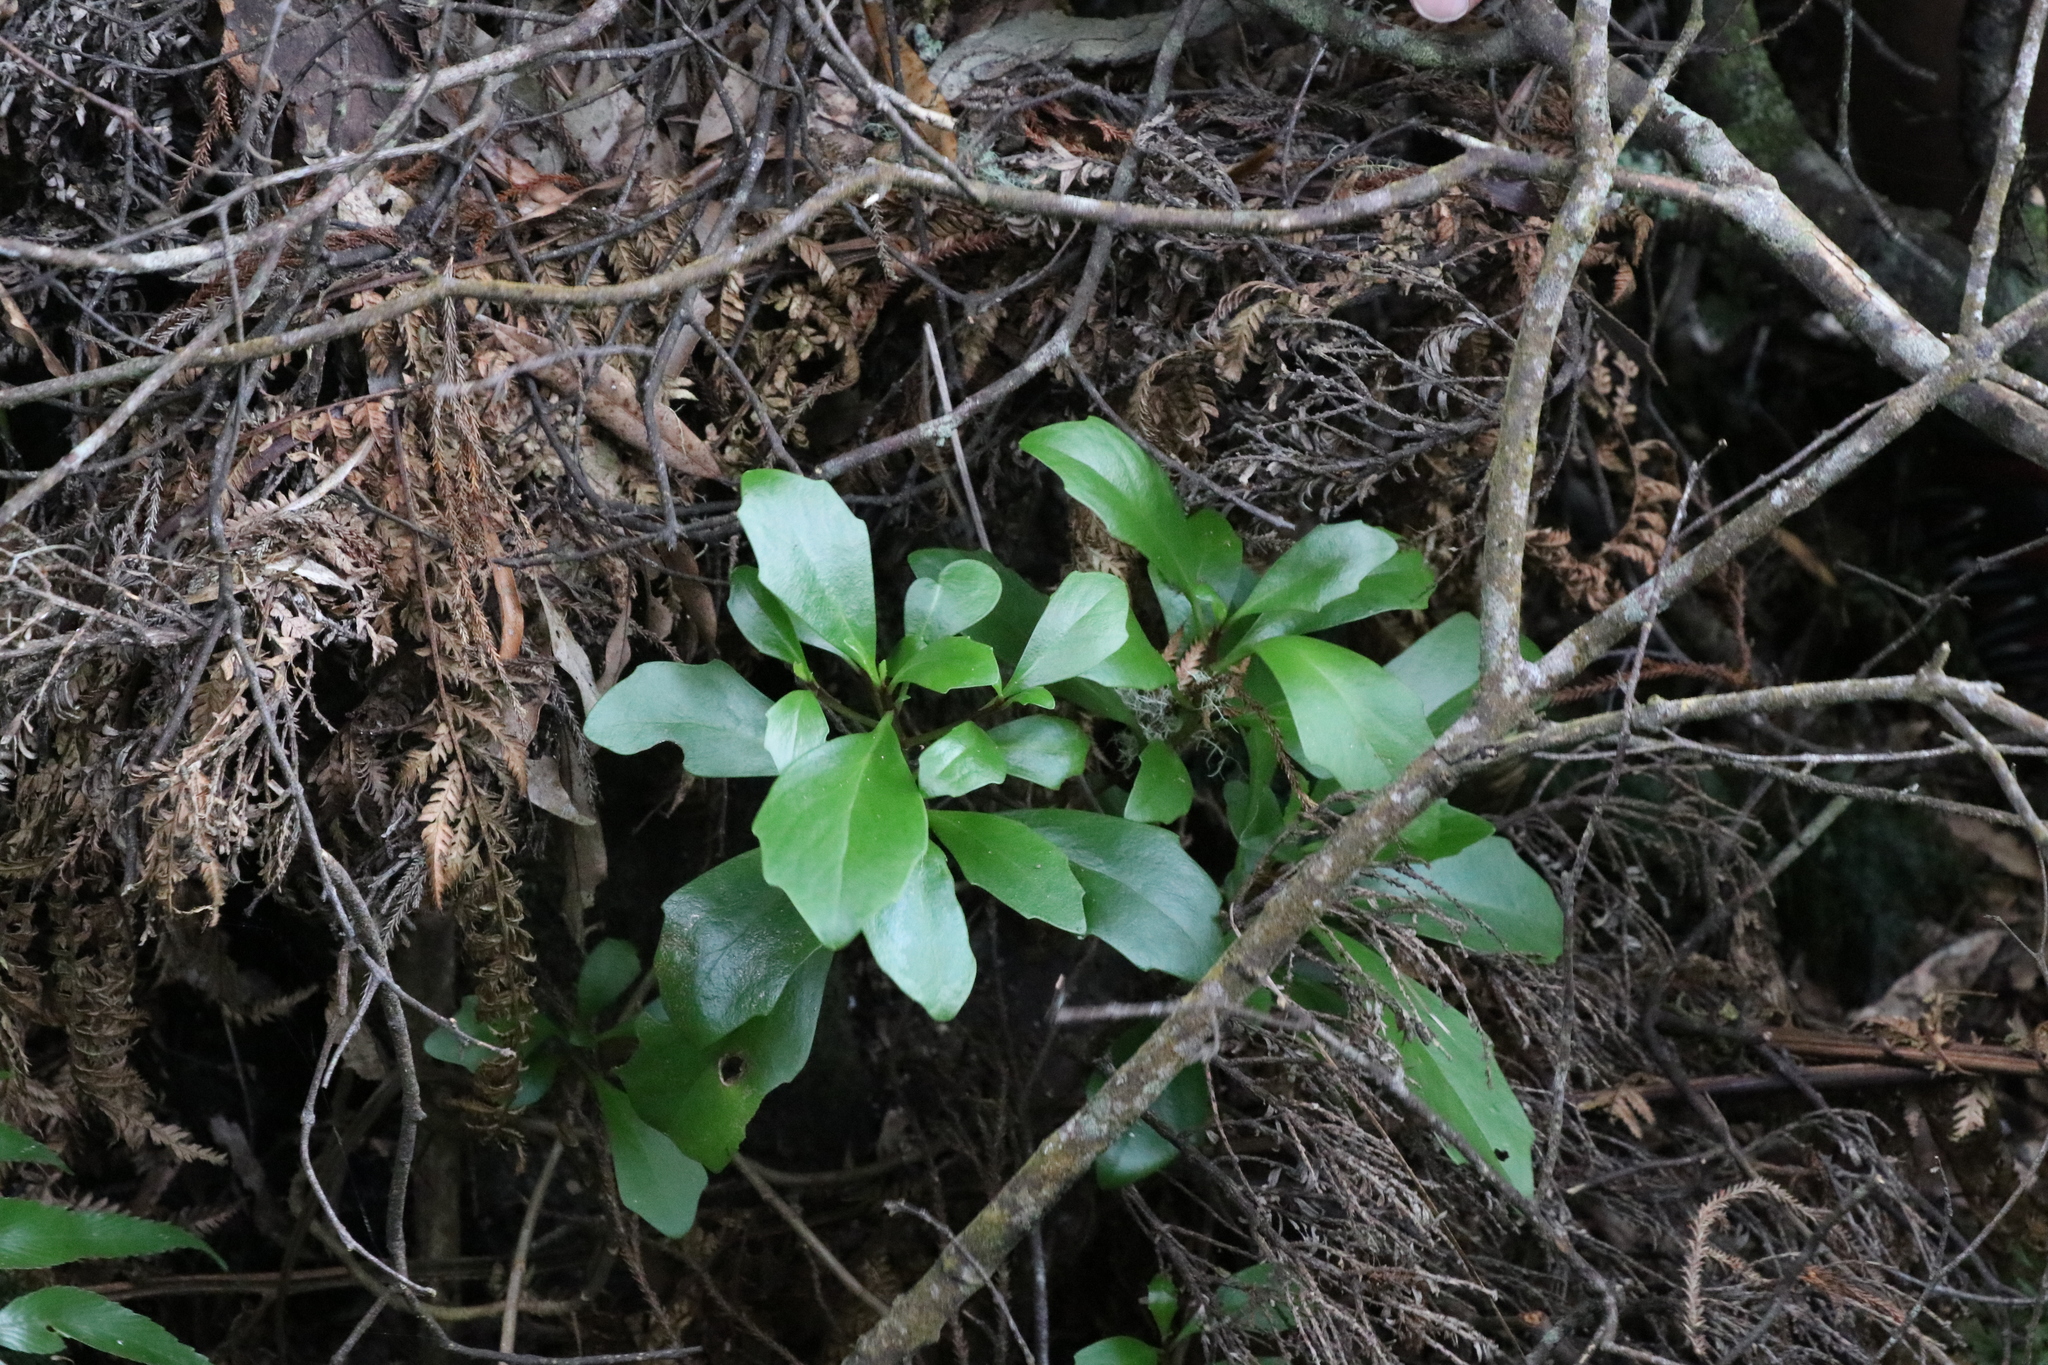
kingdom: Plantae
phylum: Tracheophyta
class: Magnoliopsida
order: Asterales
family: Asteraceae
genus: Brachyglottis
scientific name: Brachyglottis kirkii
